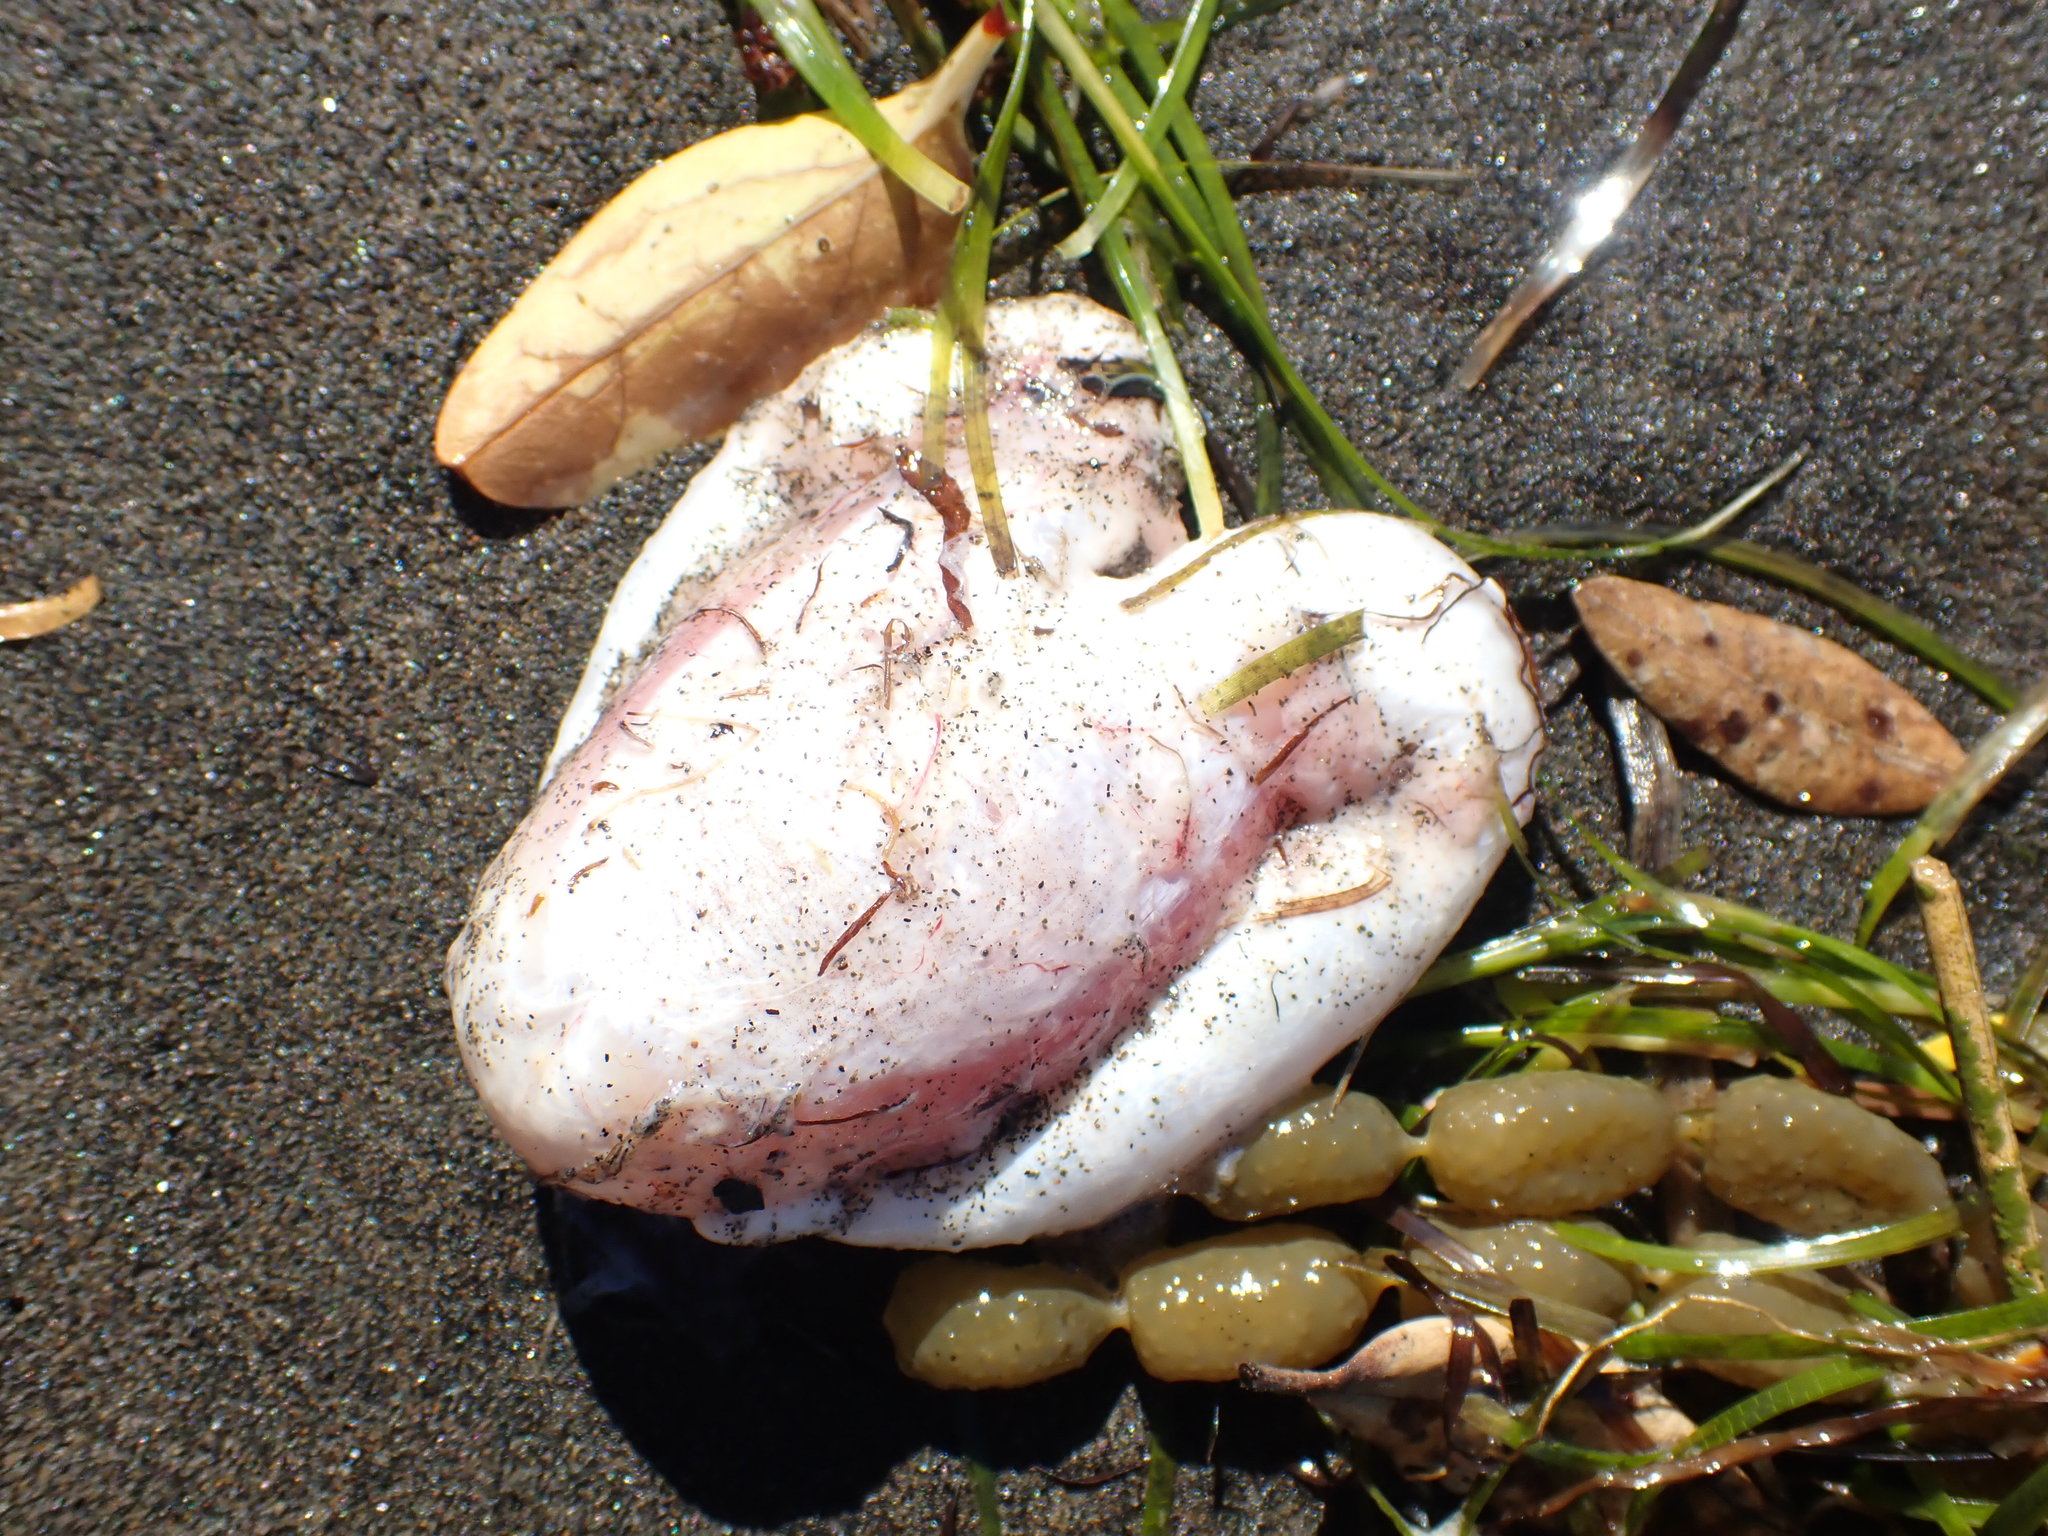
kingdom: Animalia
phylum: Chordata
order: Tetraodontiformes
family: Diodontidae
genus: Allomycterus
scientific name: Allomycterus pilatus
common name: No common name
